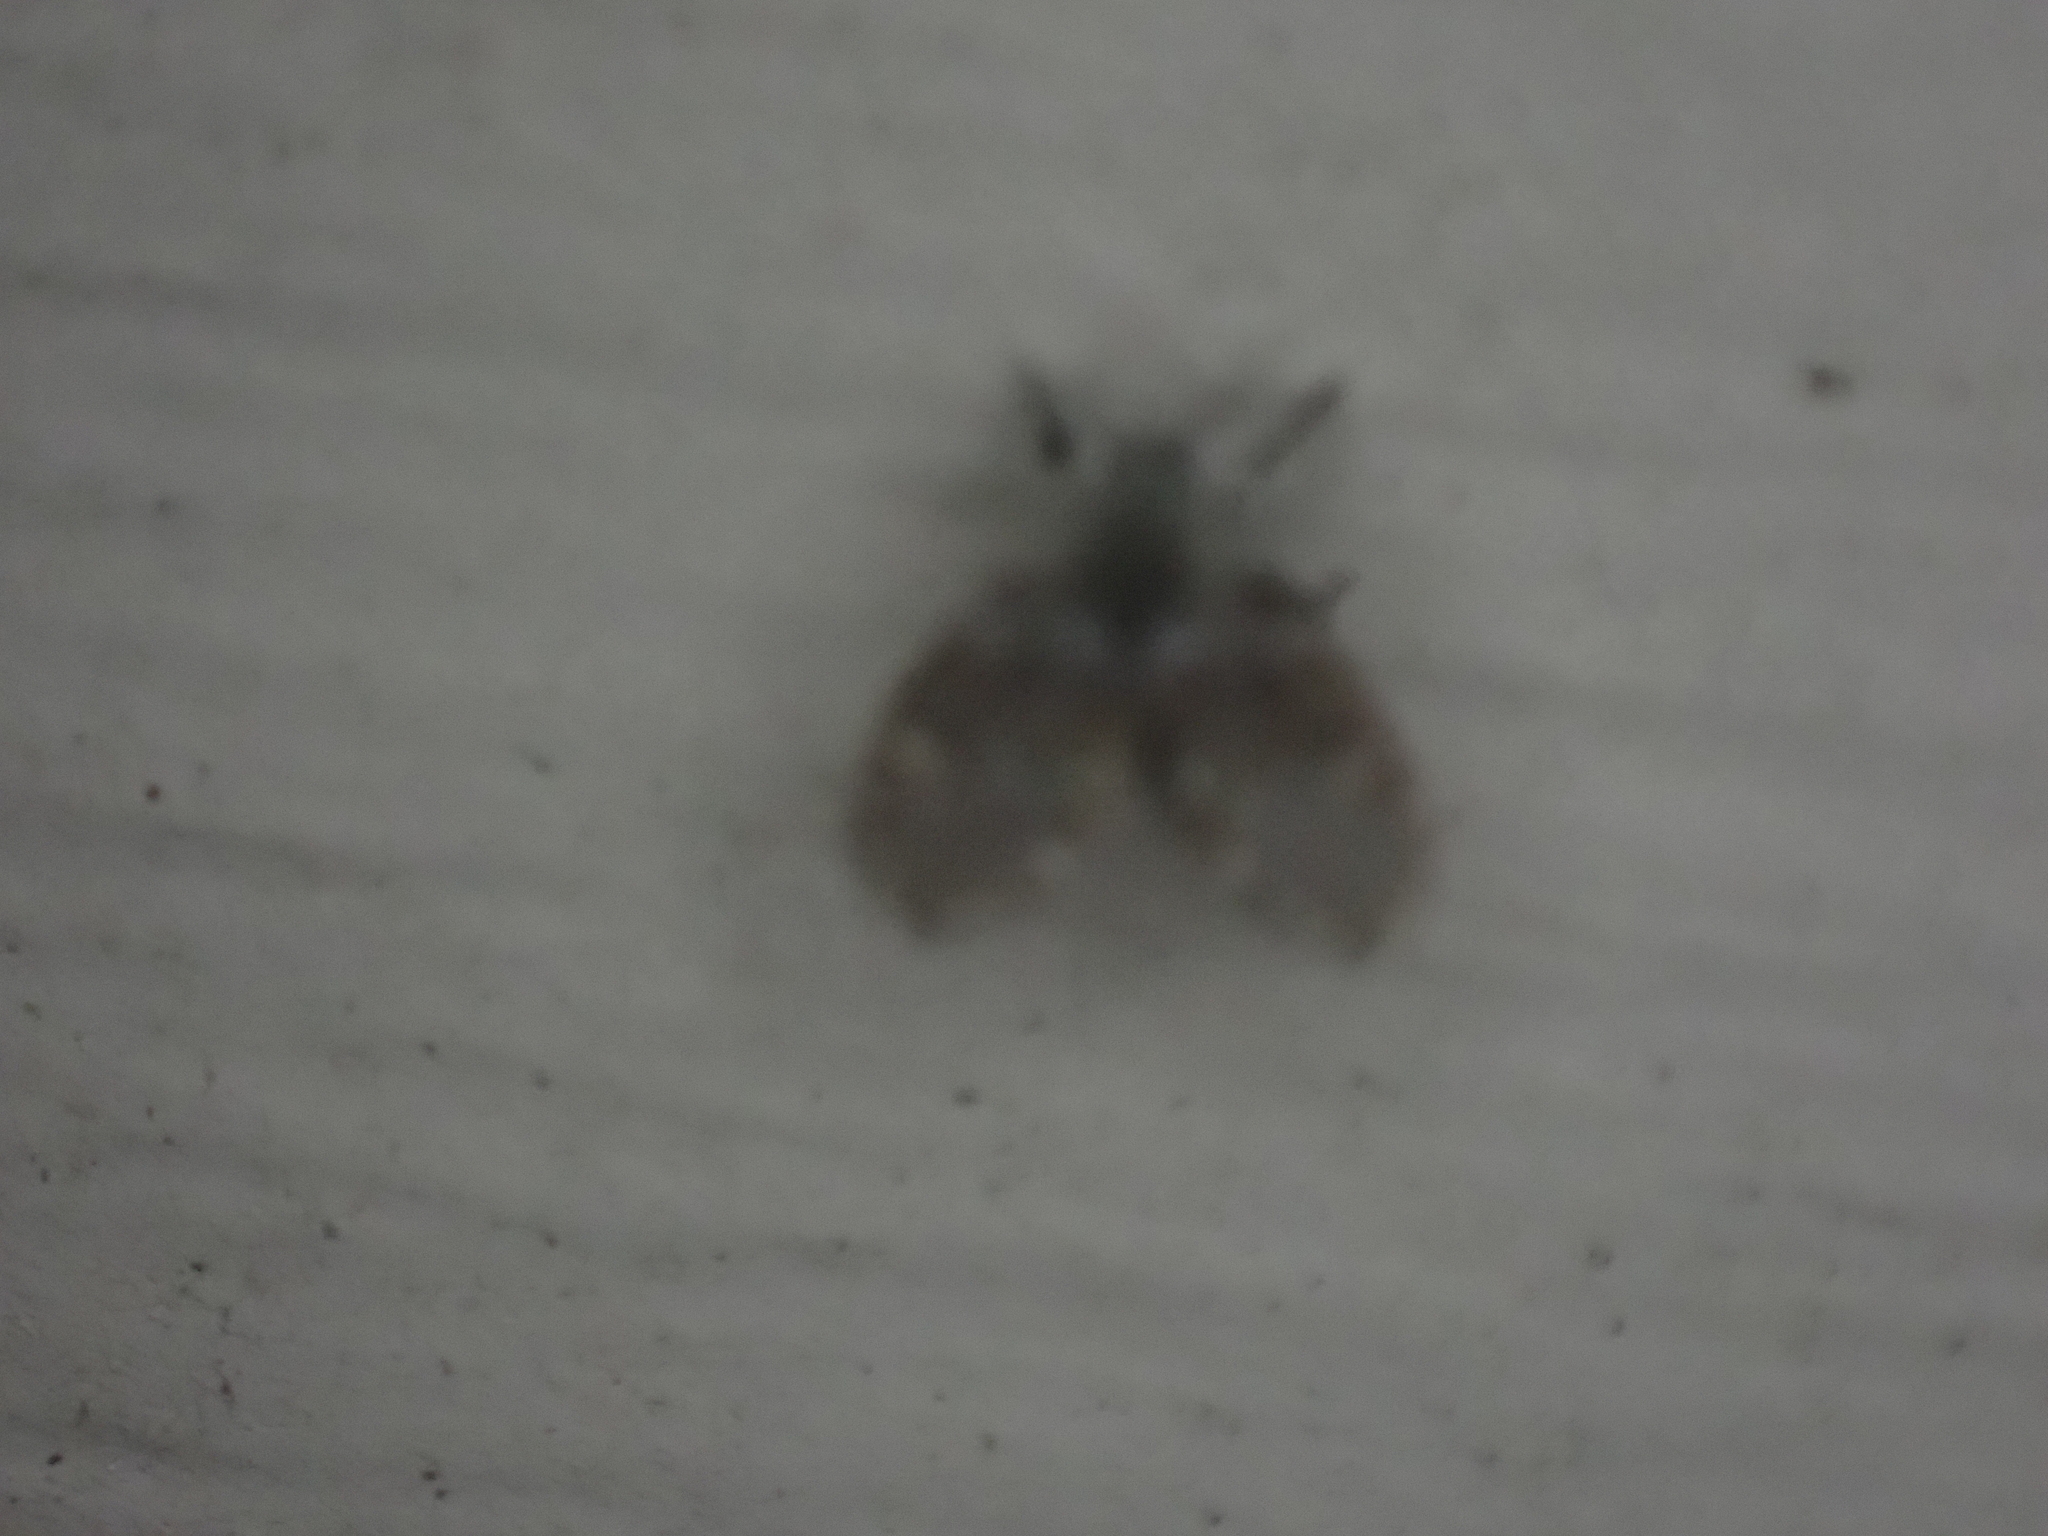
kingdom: Animalia
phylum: Arthropoda
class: Insecta
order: Diptera
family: Psychodidae
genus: Clogmia
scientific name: Clogmia albipunctatus
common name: White-spotted moth fly
